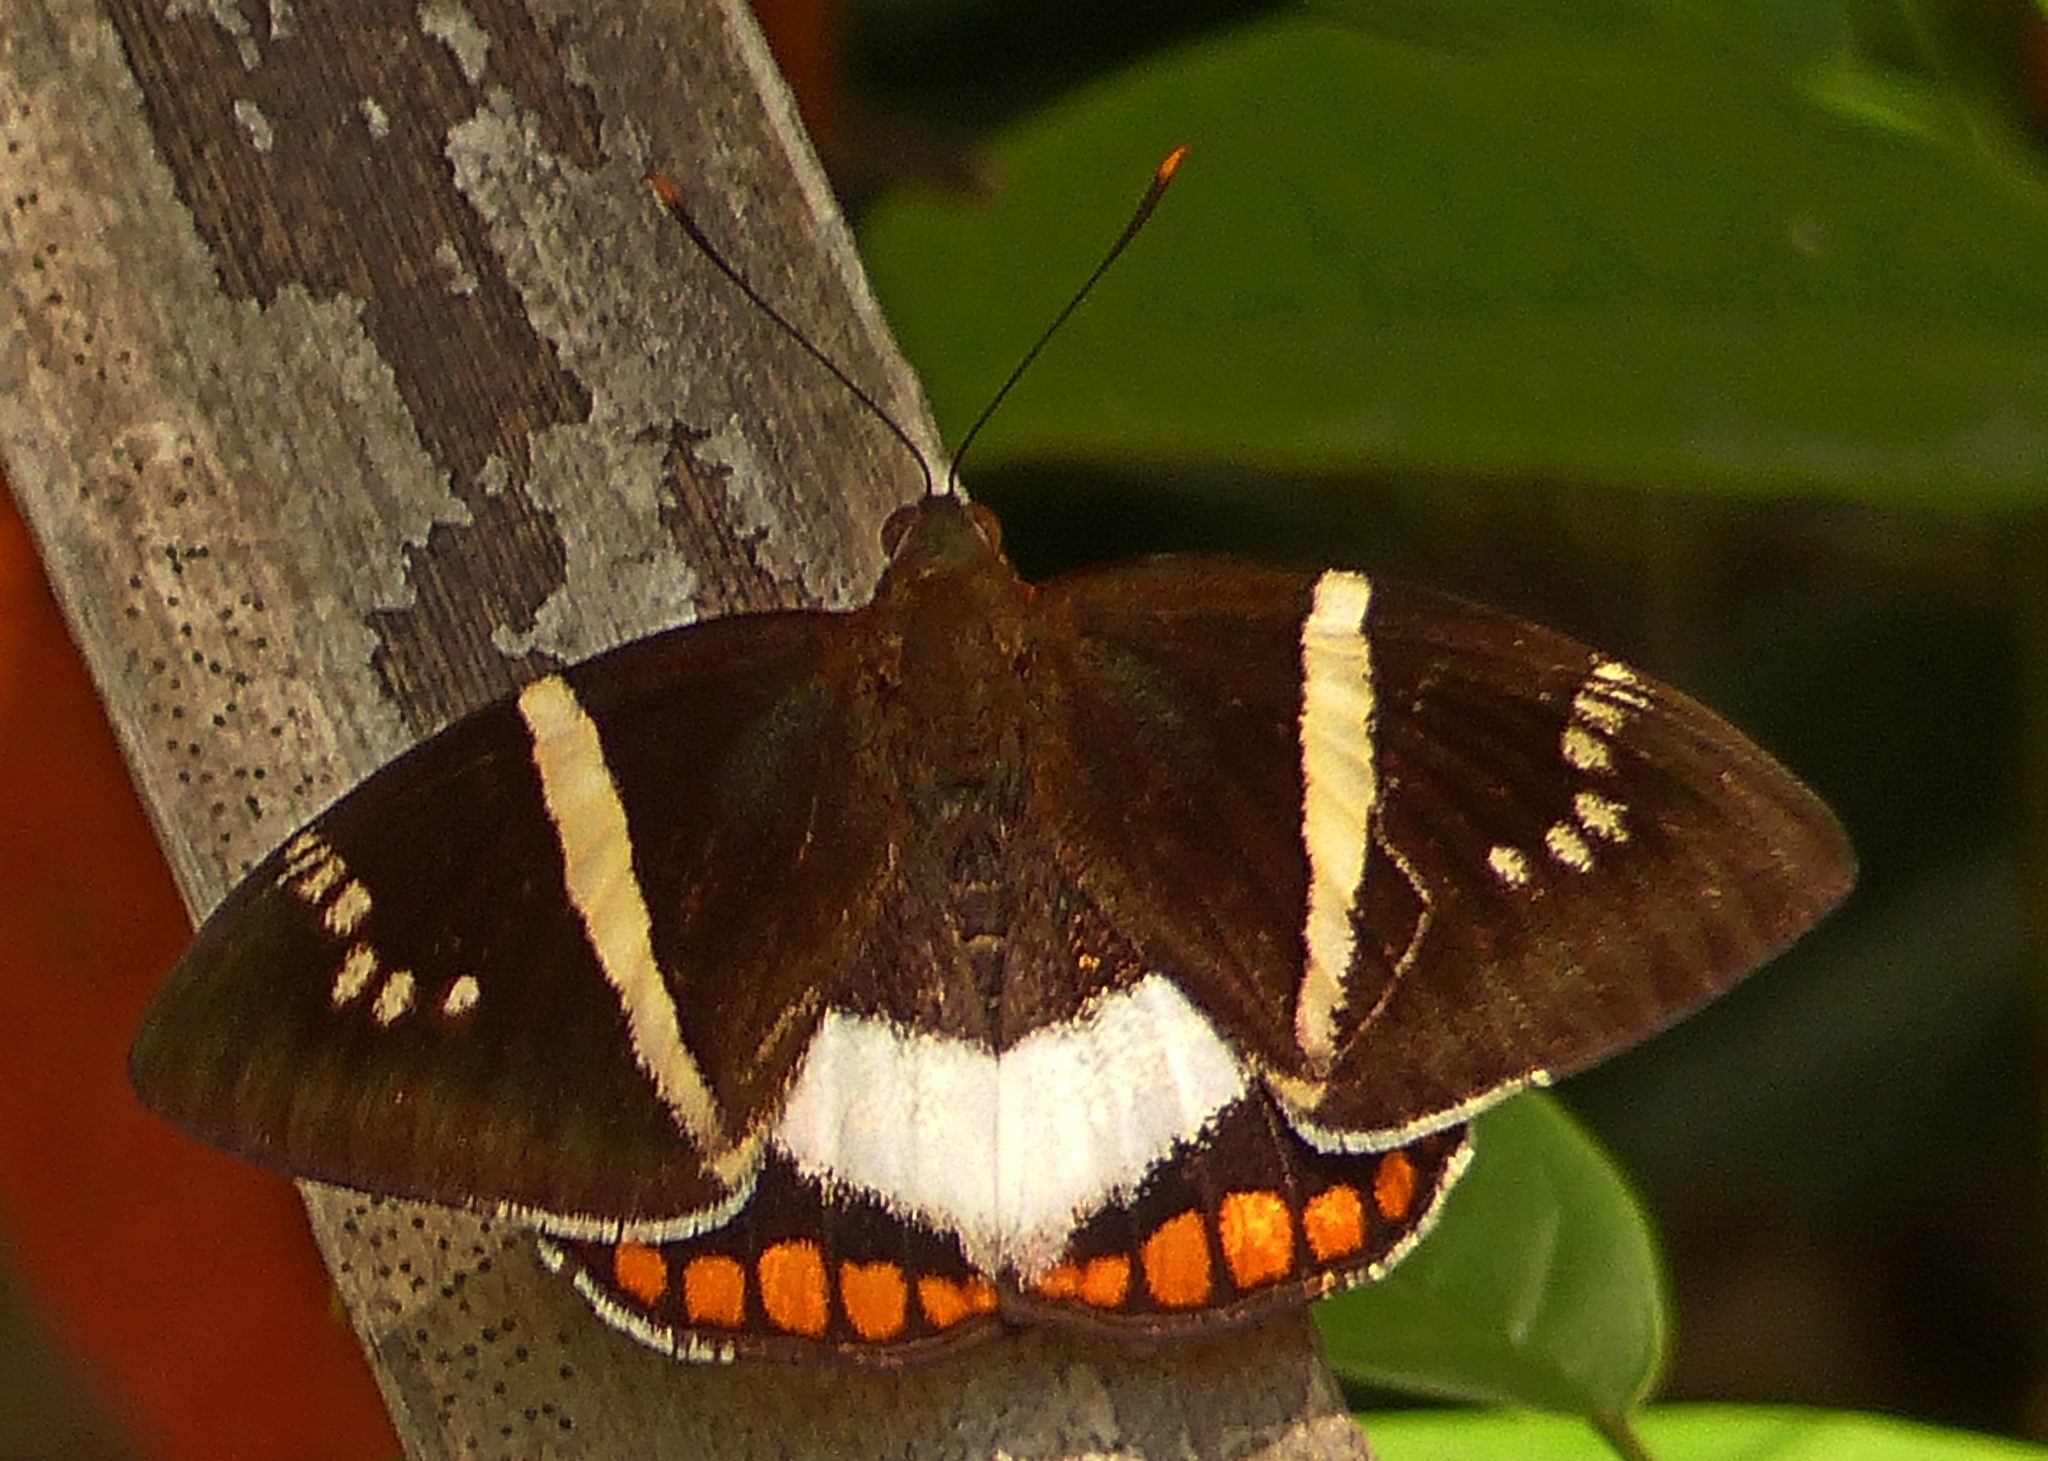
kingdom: Animalia
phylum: Arthropoda
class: Insecta
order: Lepidoptera
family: Castniidae
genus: Castnia
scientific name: Castnia licus
